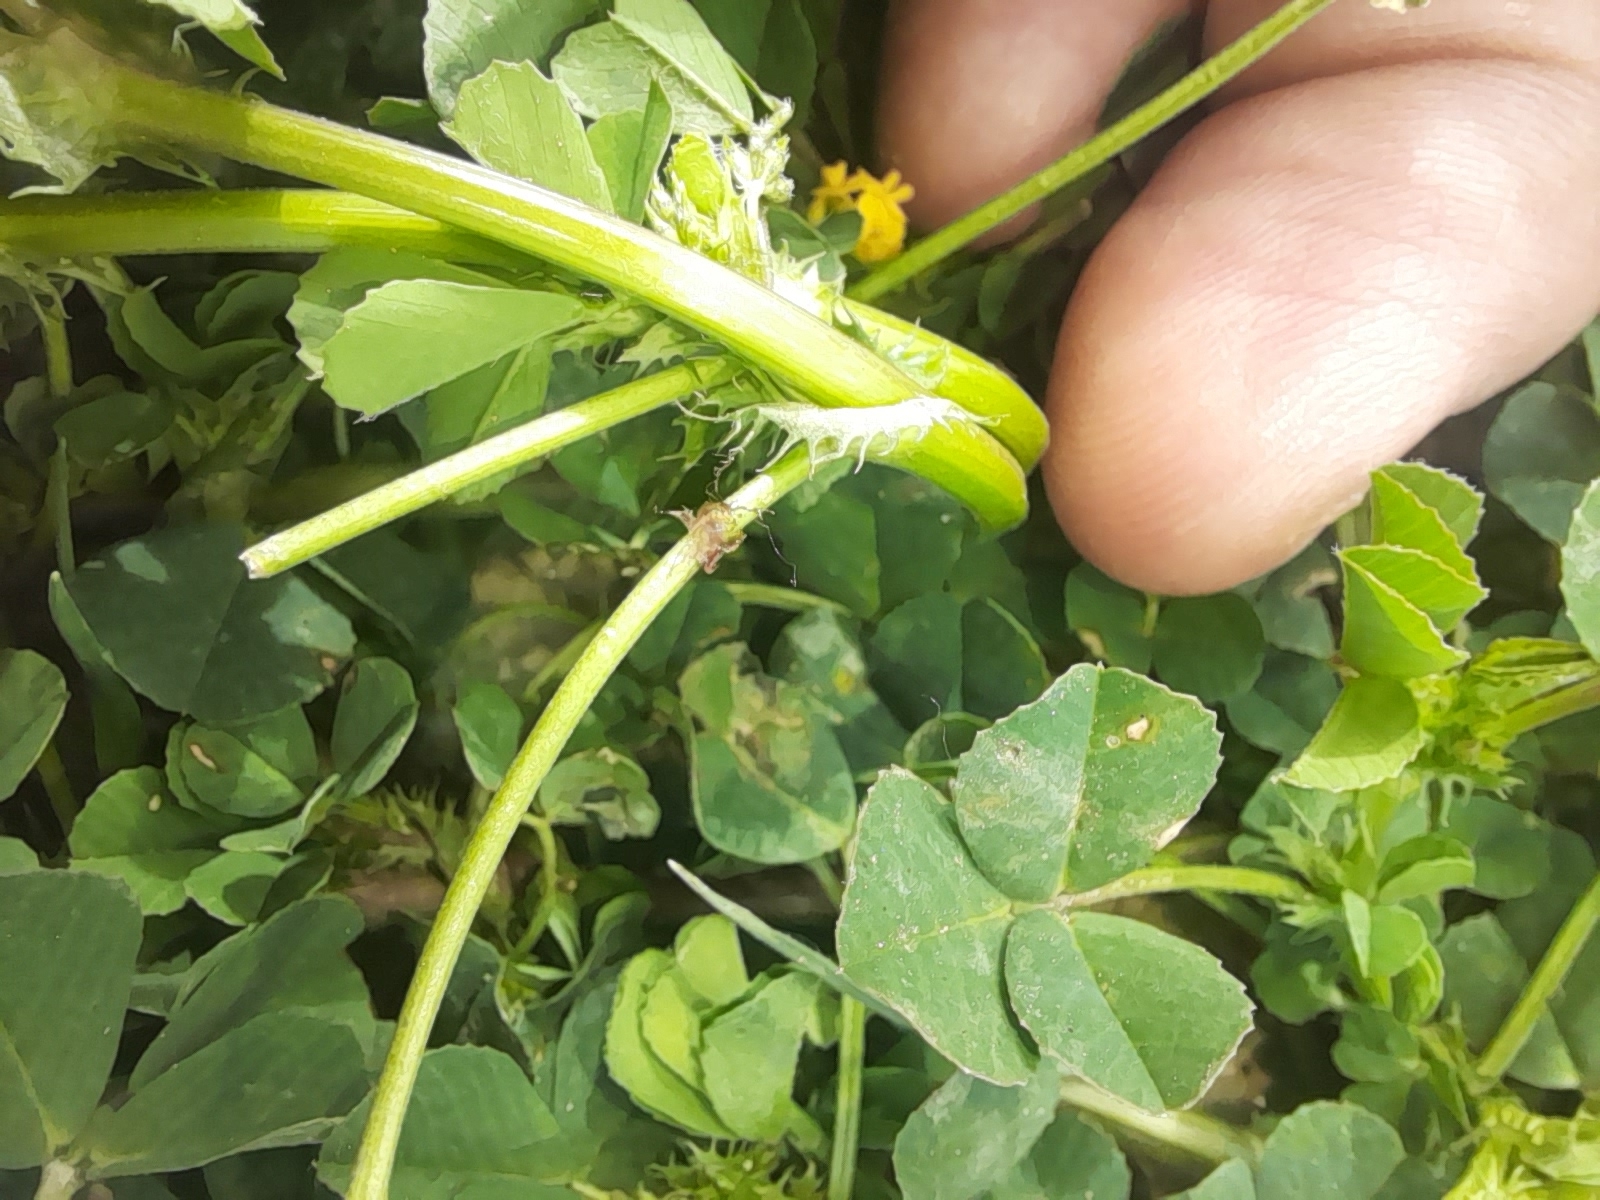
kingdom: Plantae
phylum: Tracheophyta
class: Magnoliopsida
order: Fabales
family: Fabaceae
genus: Medicago
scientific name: Medicago polymorpha
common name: Burclover
